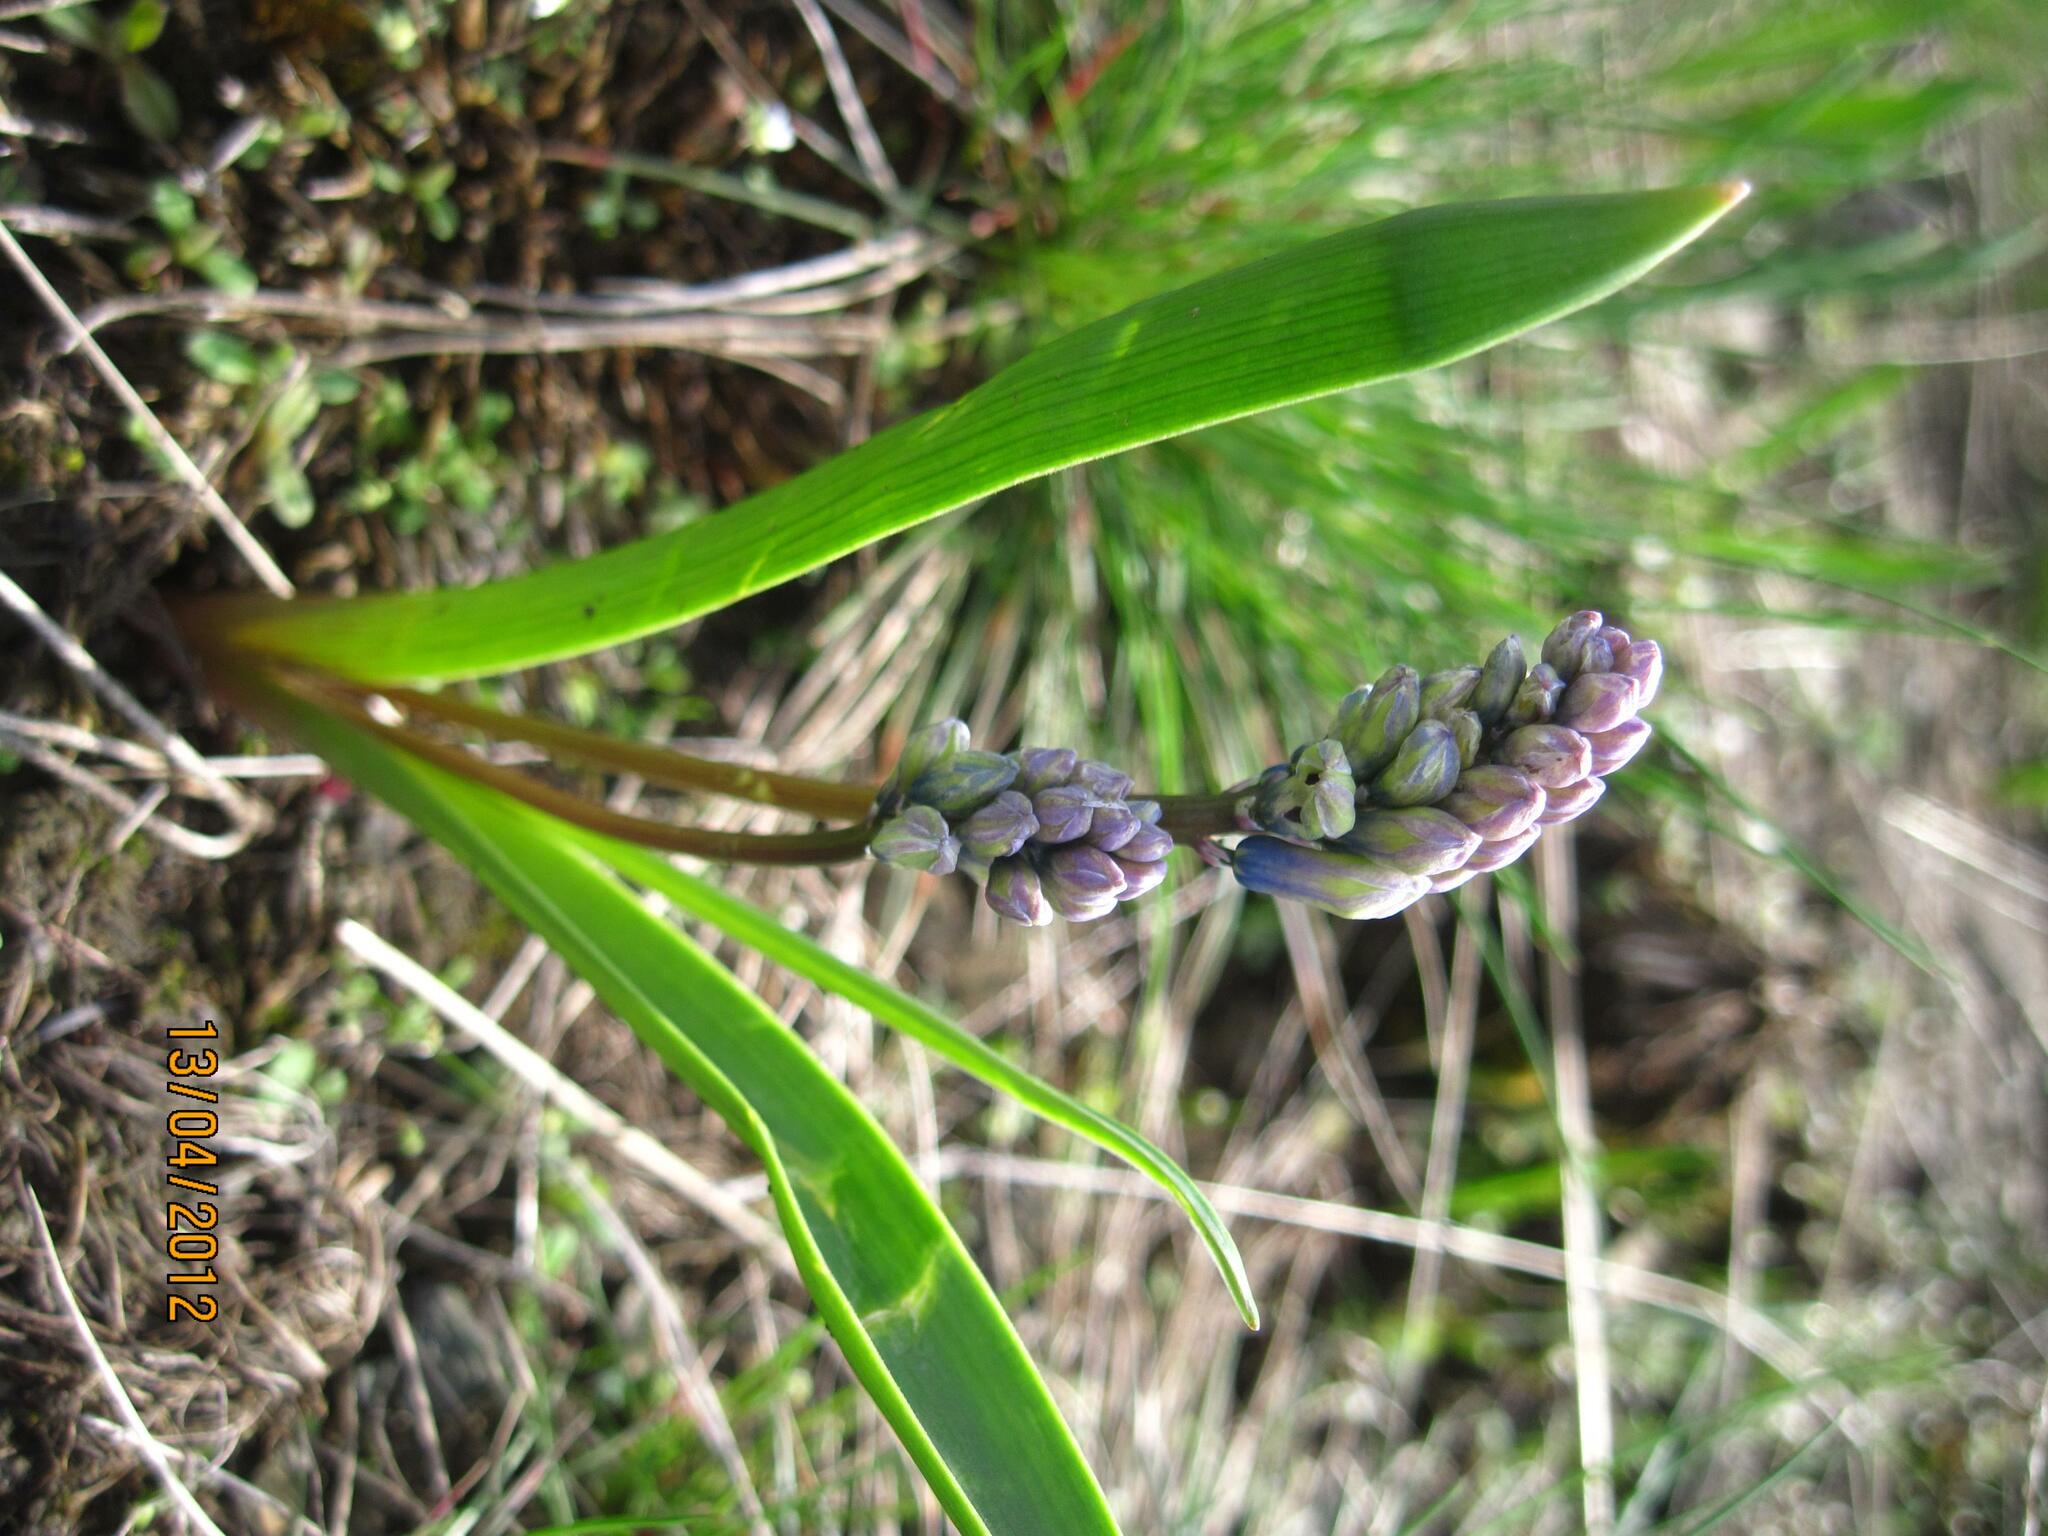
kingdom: Plantae
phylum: Tracheophyta
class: Liliopsida
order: Asparagales
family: Asparagaceae
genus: Hyacinthella
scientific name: Hyacinthella pallasiana
